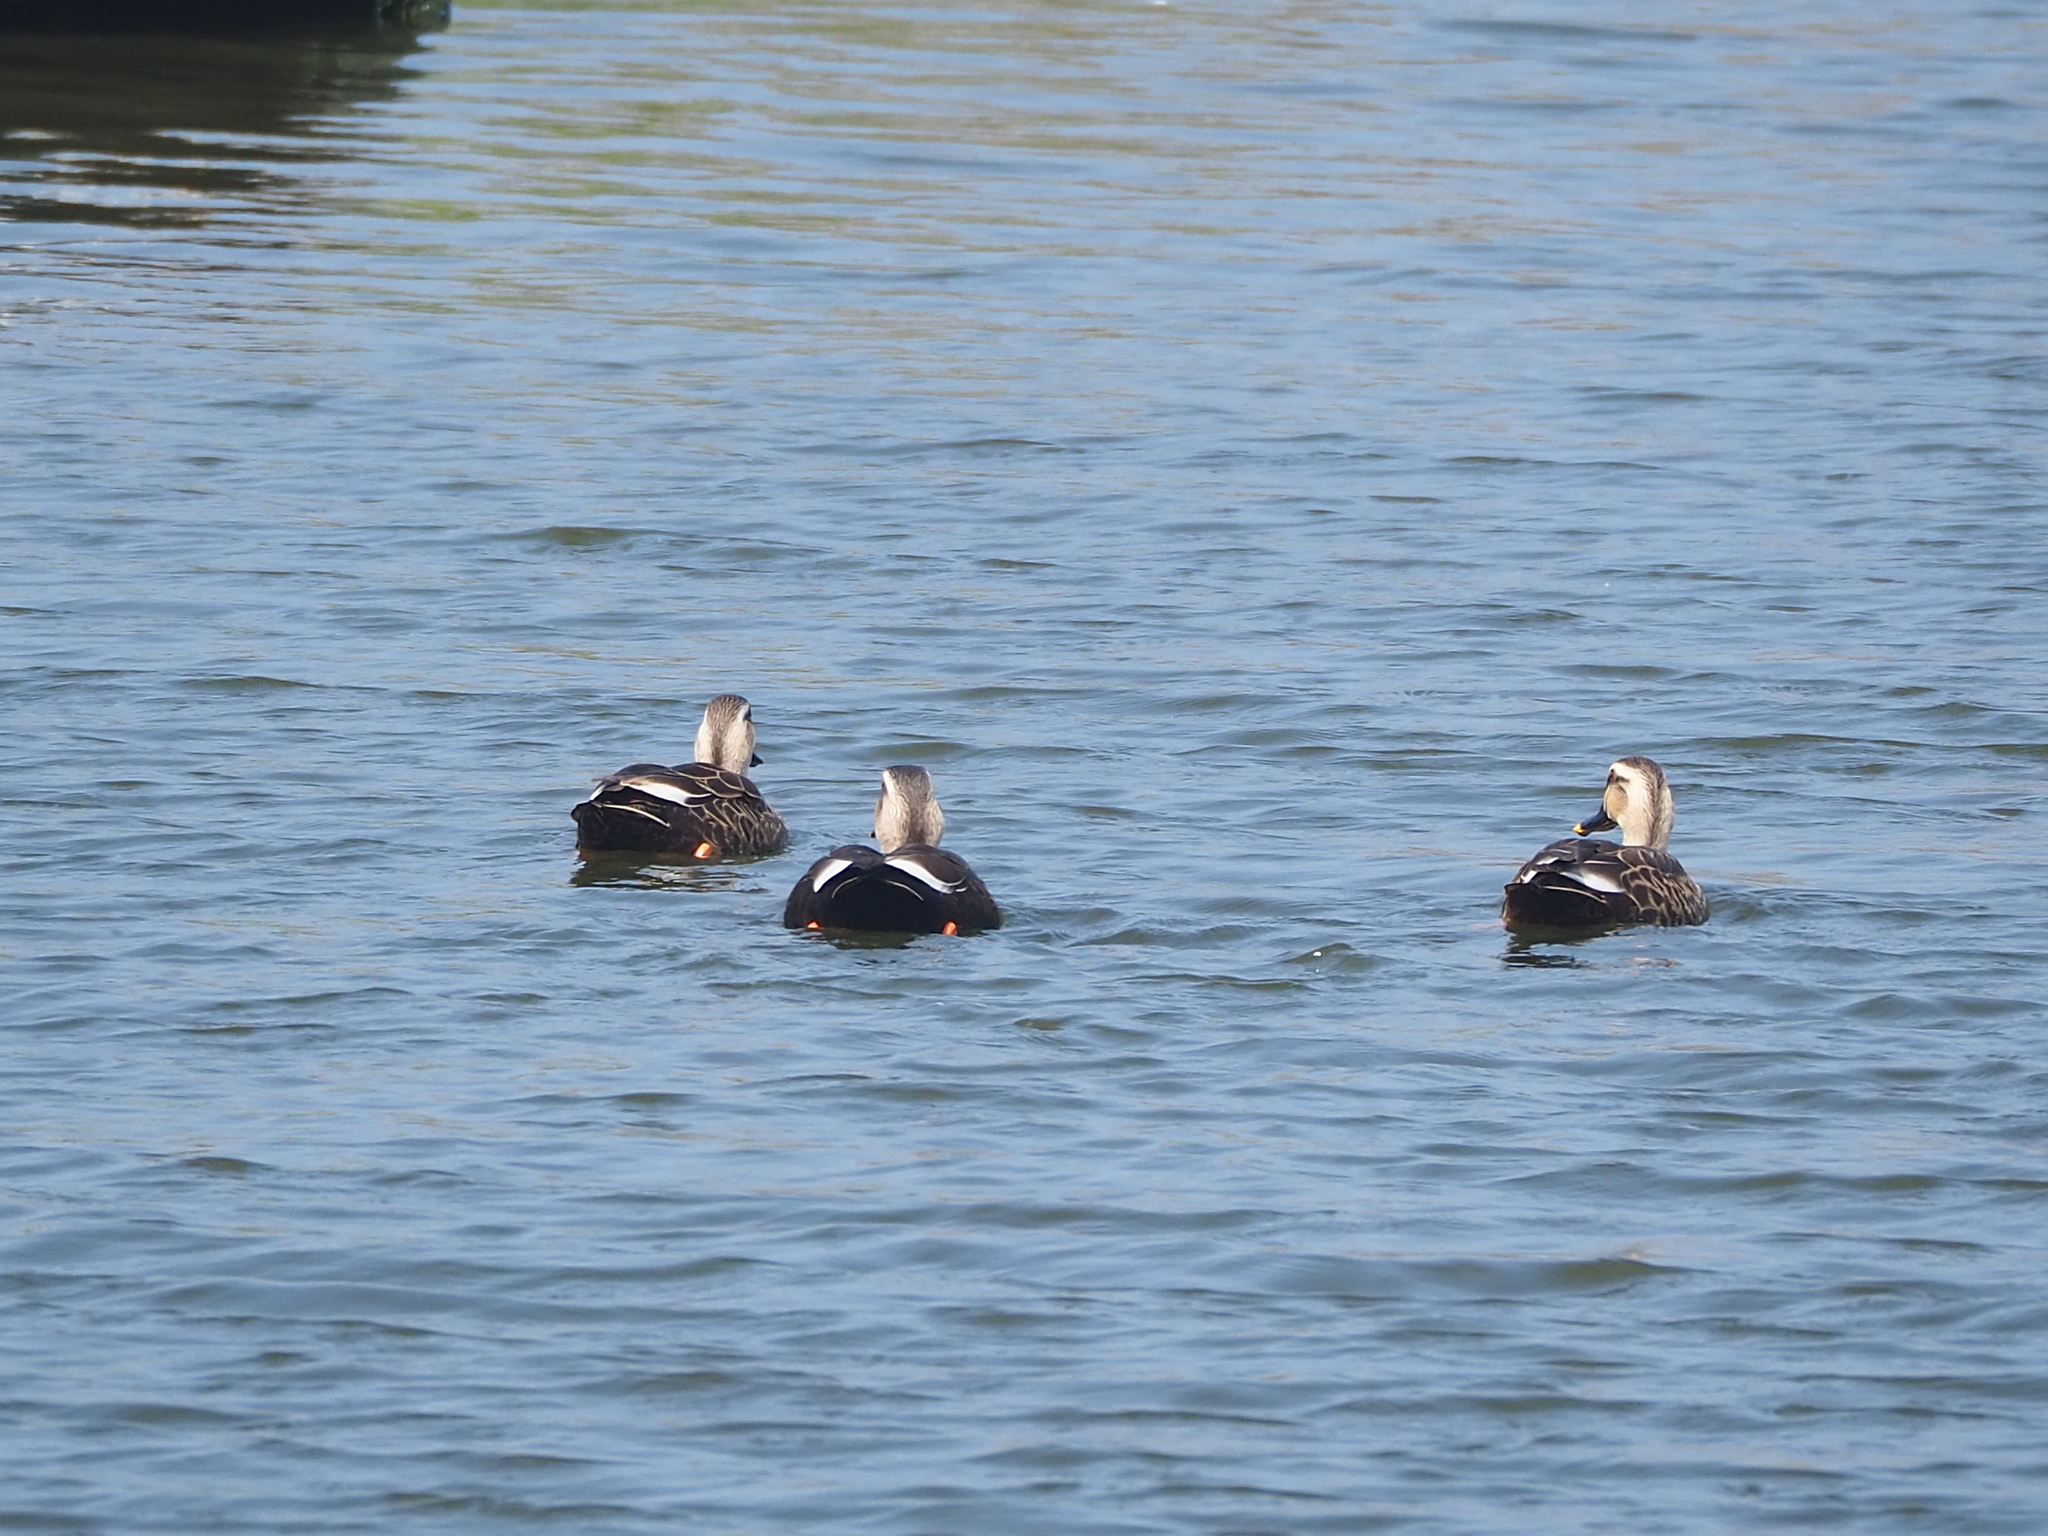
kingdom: Animalia
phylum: Chordata
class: Aves
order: Anseriformes
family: Anatidae
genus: Anas
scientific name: Anas zonorhyncha
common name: Eastern spot-billed duck
